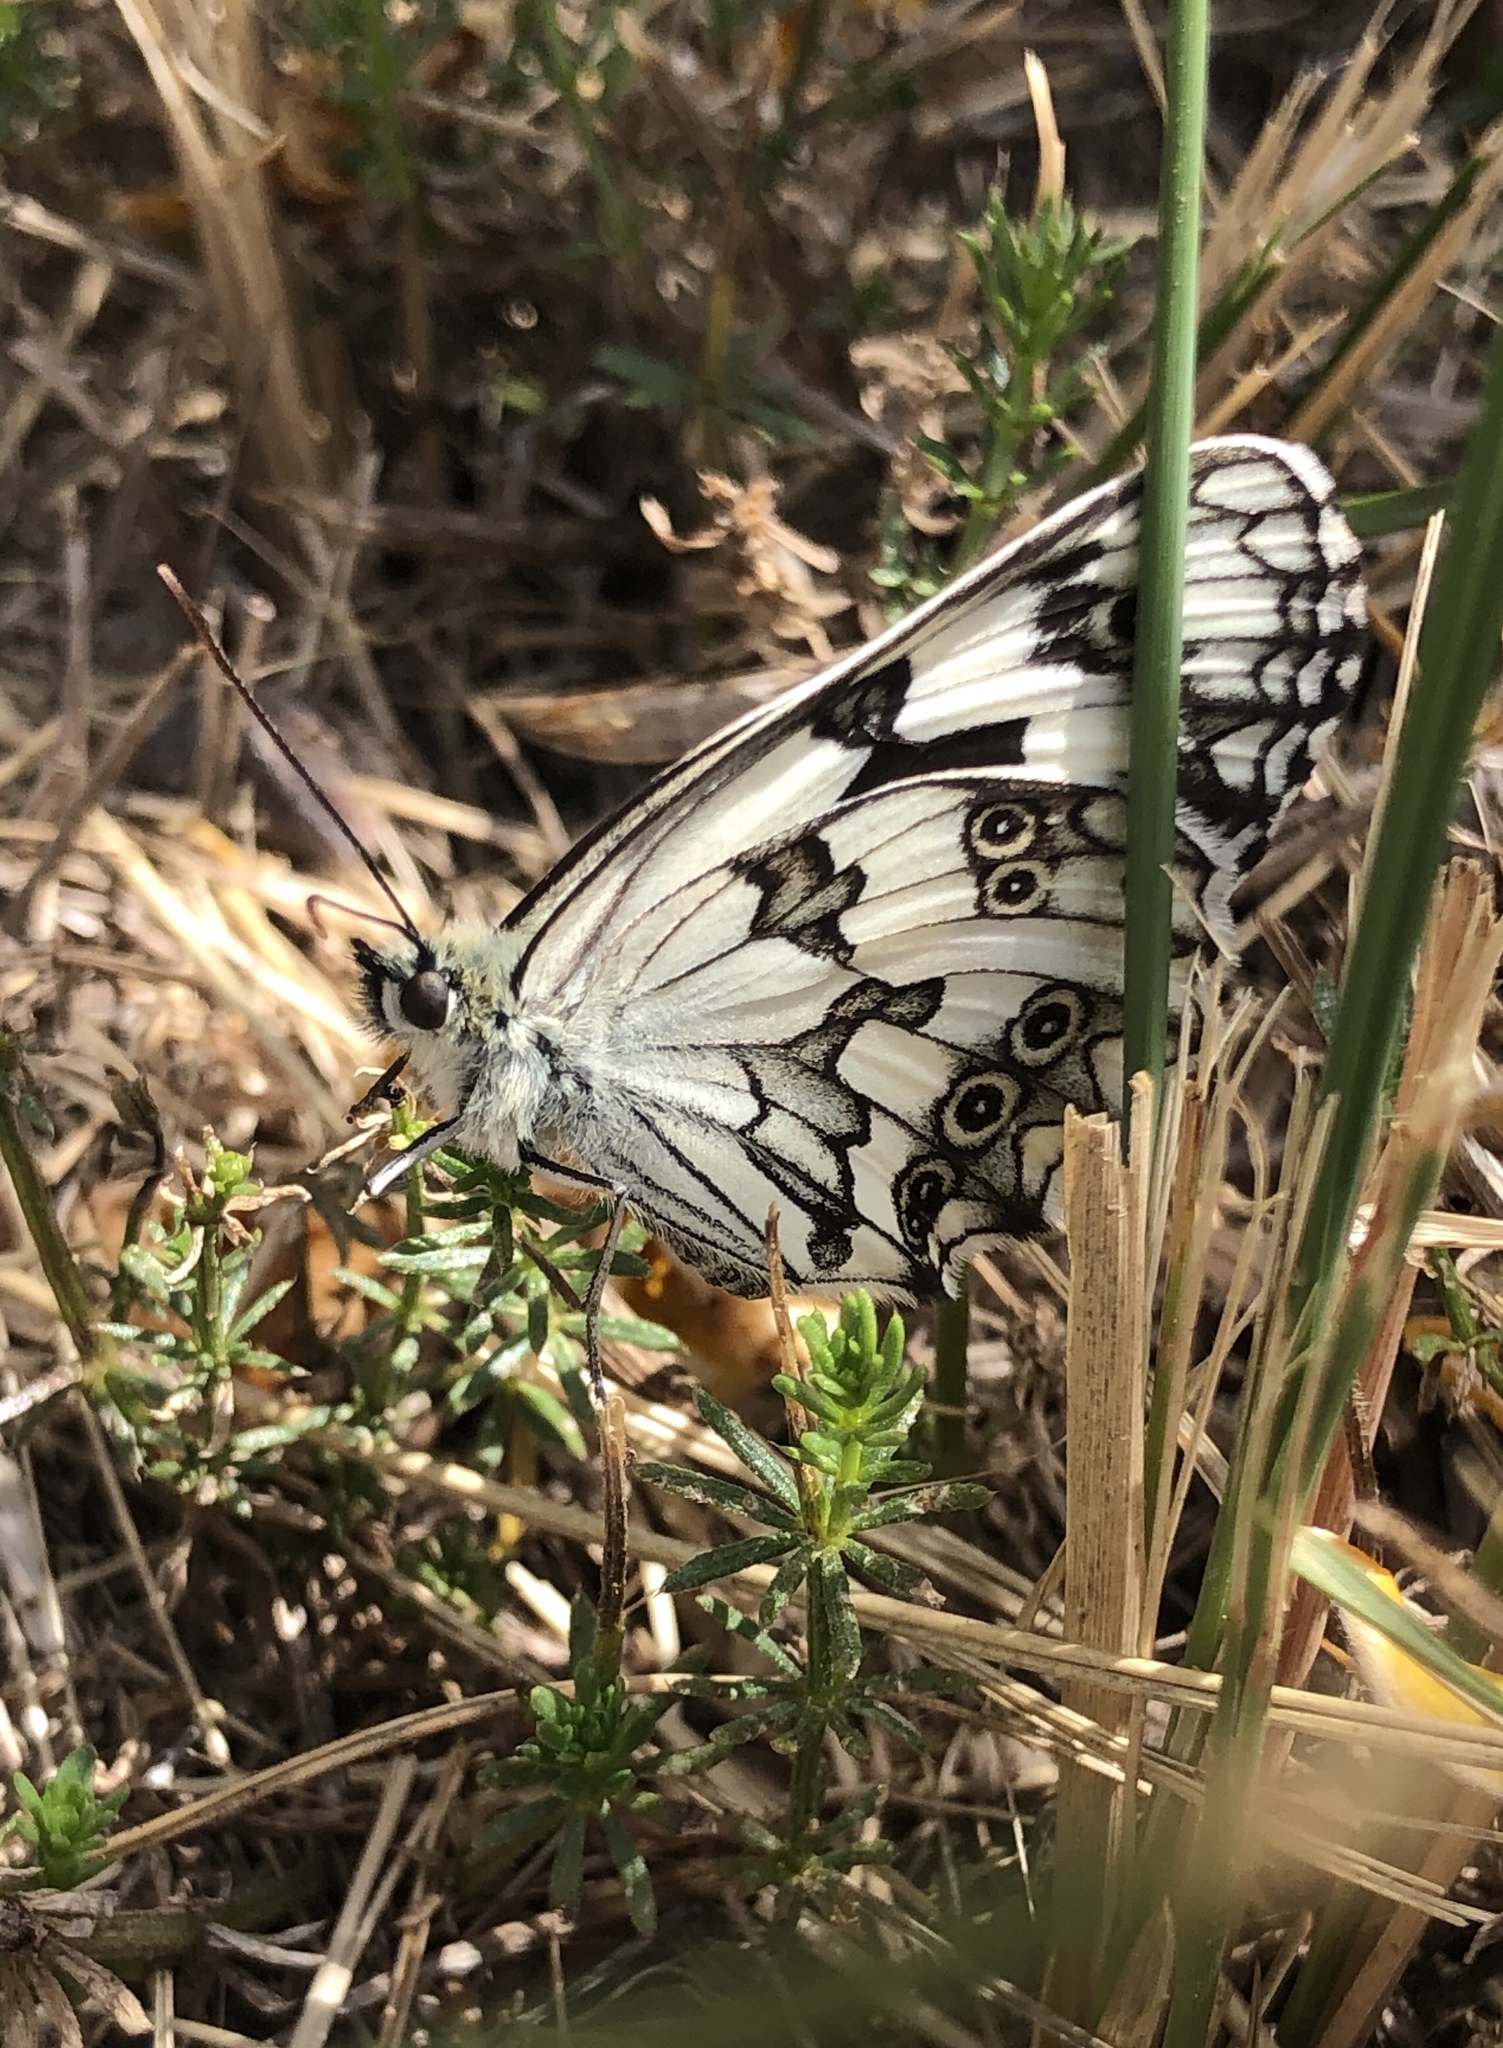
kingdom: Animalia
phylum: Arthropoda
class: Insecta
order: Lepidoptera
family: Nymphalidae
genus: Melanargia
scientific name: Melanargia lachesis
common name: Iberian marbled white
